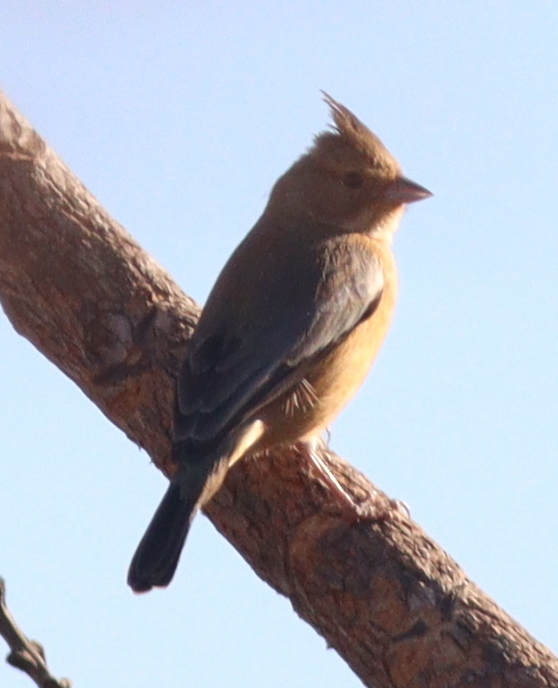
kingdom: Animalia
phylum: Chordata
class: Aves
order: Passeriformes
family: Thraupidae
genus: Charitospiza
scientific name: Charitospiza eucosma
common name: Coal-crested finch
